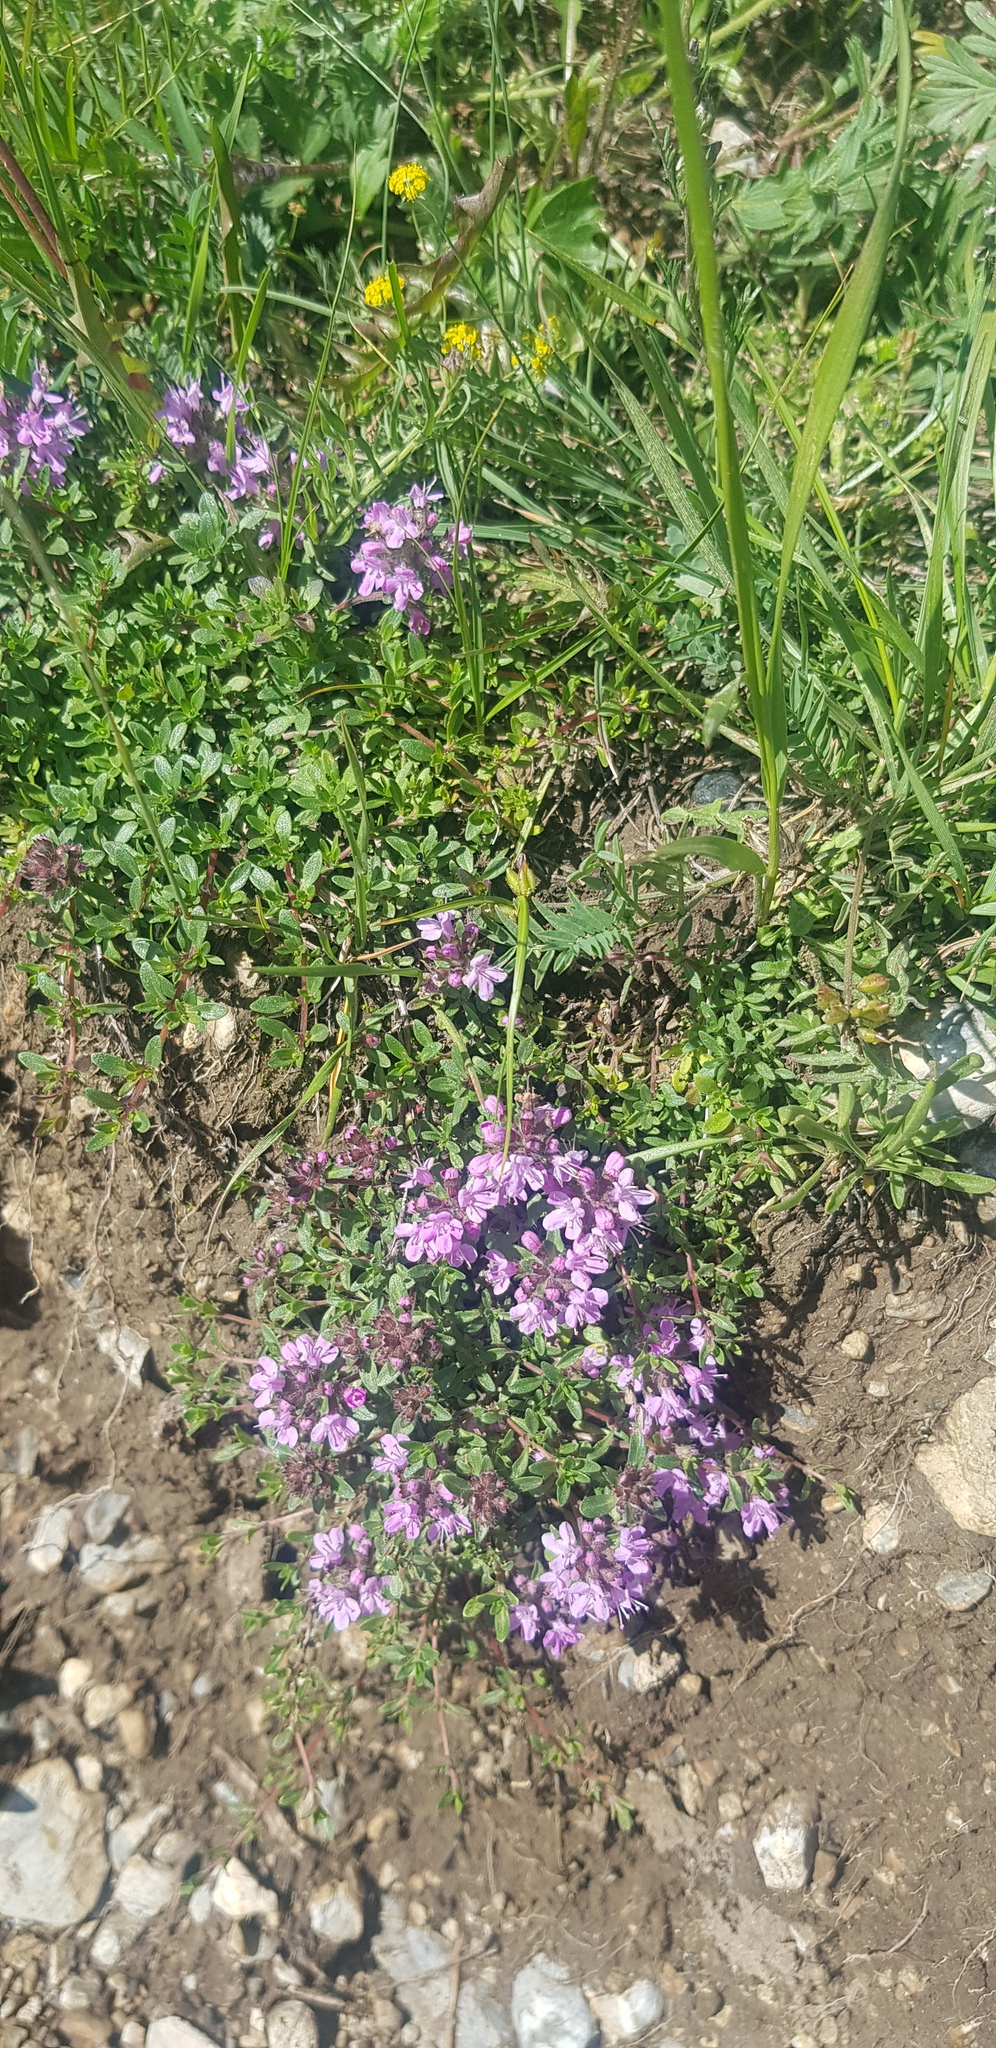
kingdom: Plantae
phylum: Tracheophyta
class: Magnoliopsida
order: Lamiales
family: Lamiaceae
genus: Thymus
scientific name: Thymus baicalensis
